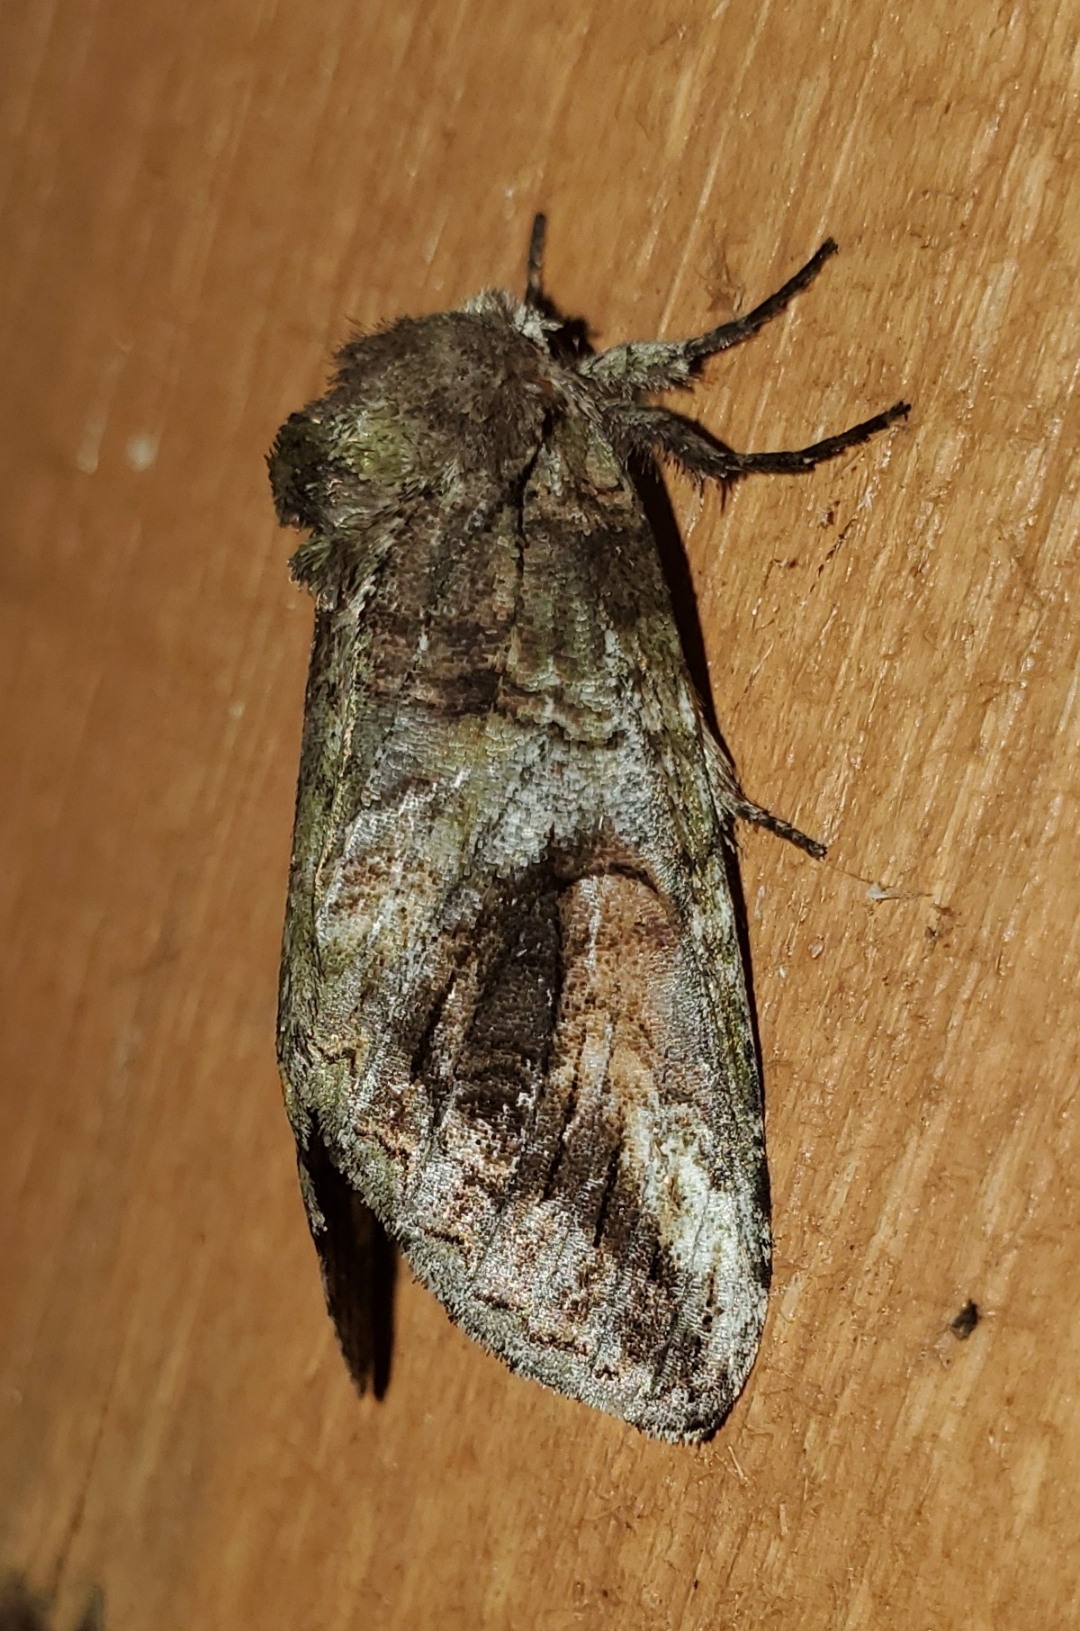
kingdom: Animalia
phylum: Arthropoda
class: Insecta
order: Lepidoptera
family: Notodontidae
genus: Heterocampa
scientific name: Heterocampa obliqua
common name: Oblique heterocampa
